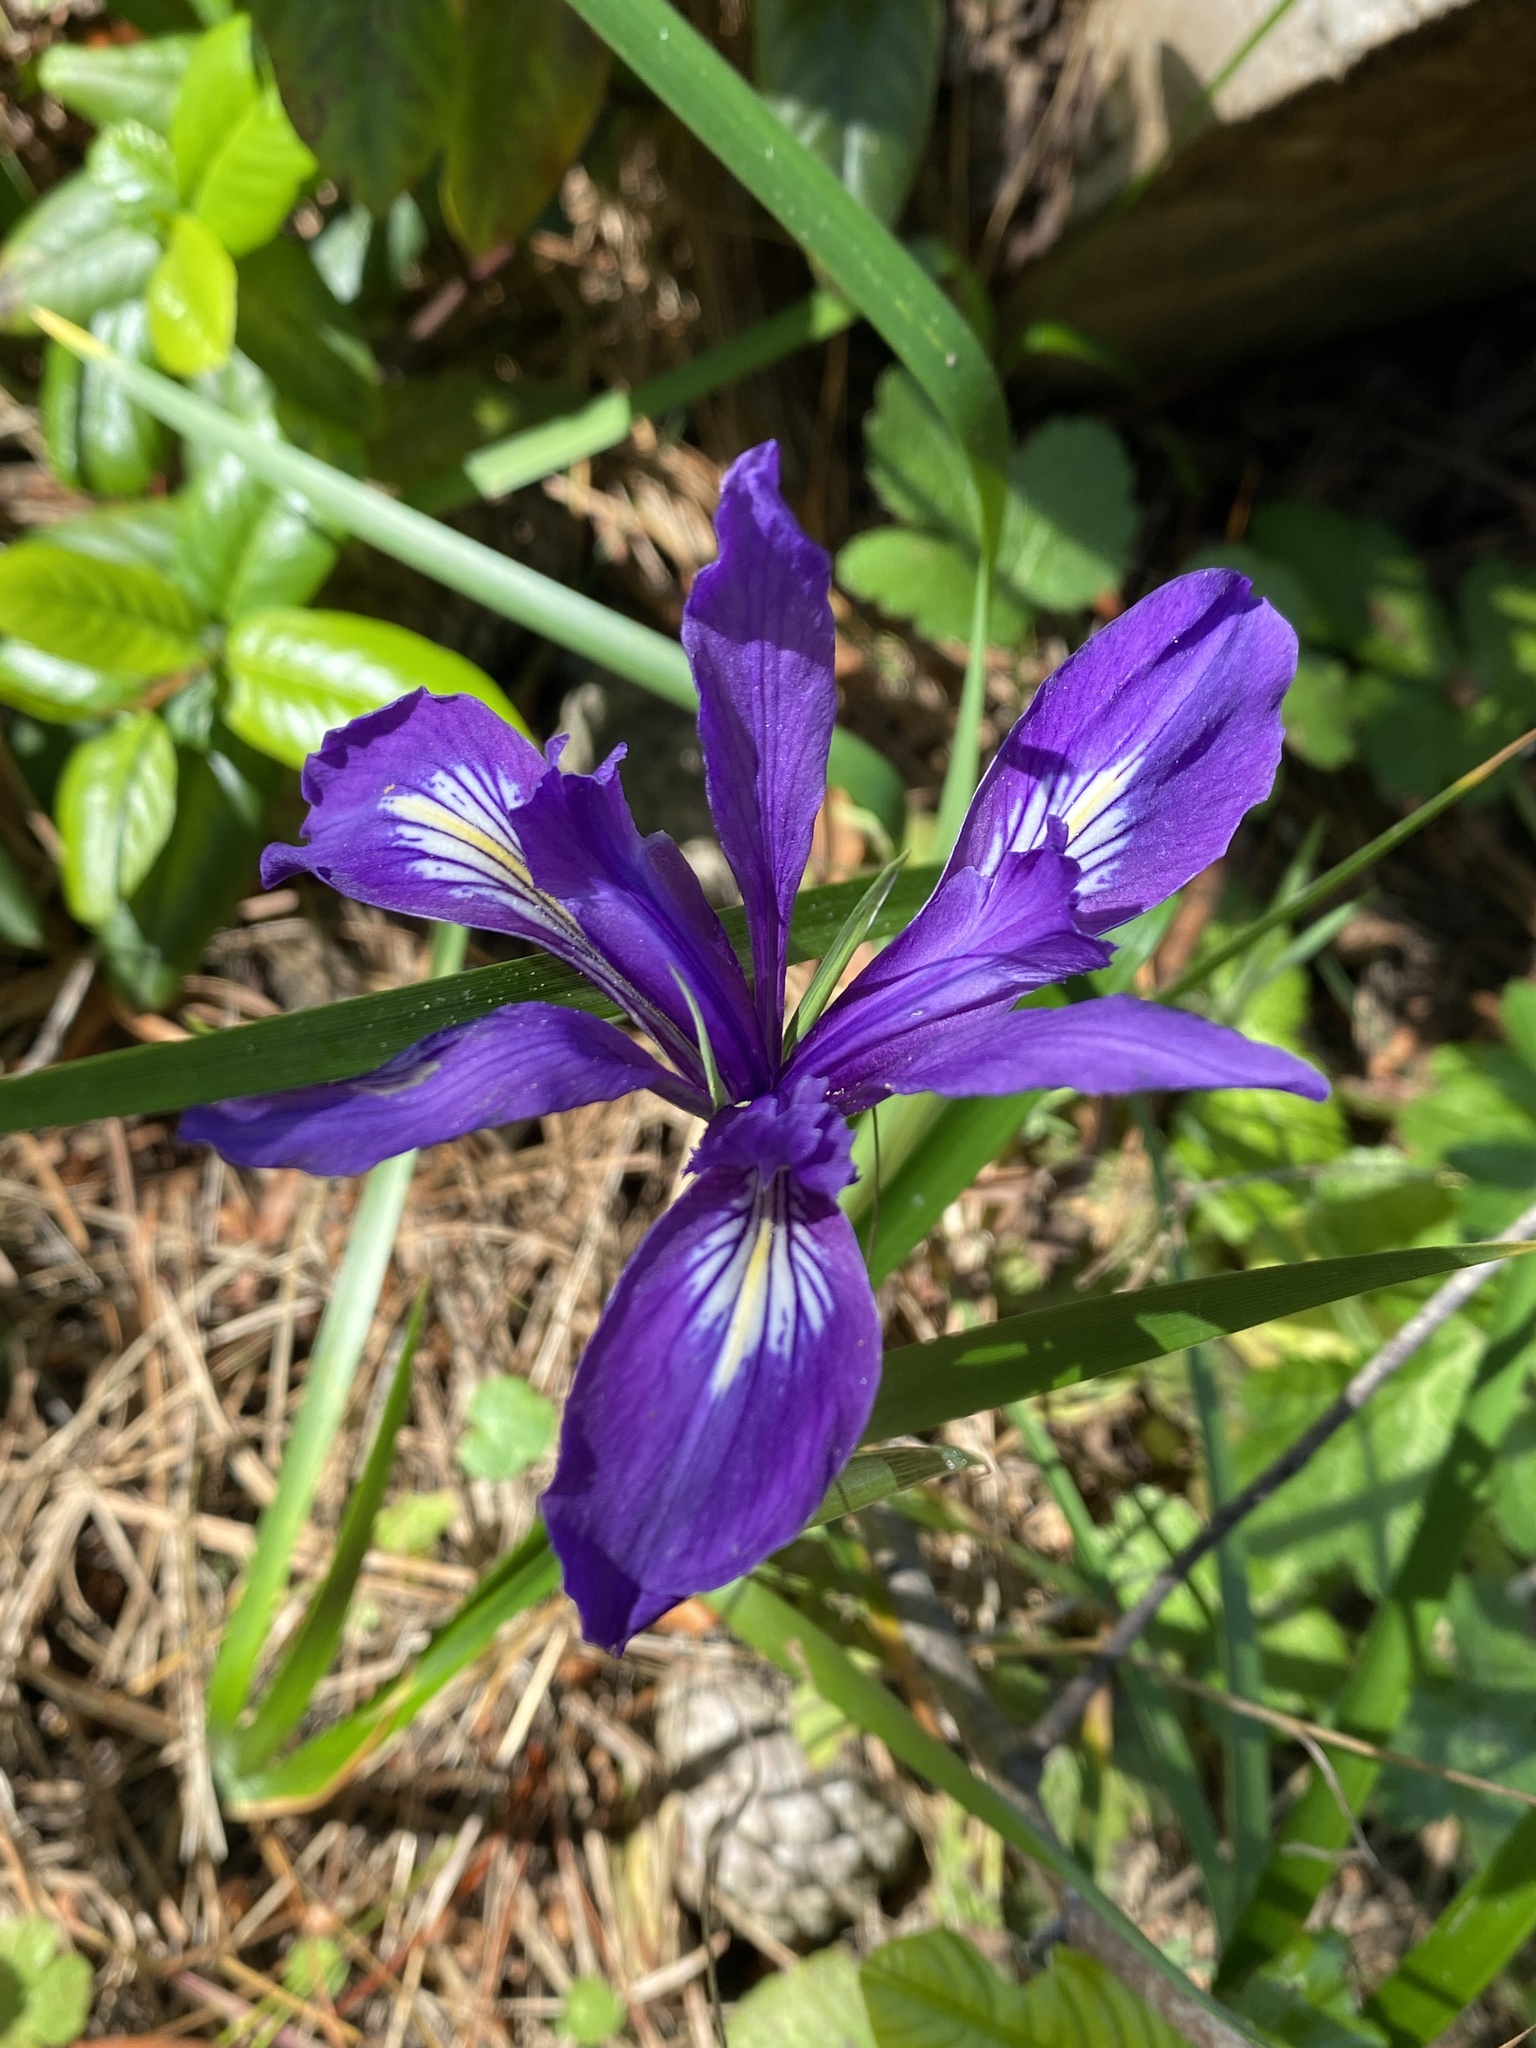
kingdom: Plantae
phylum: Tracheophyta
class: Liliopsida
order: Asparagales
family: Iridaceae
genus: Iris
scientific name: Iris douglasiana
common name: Marin iris
